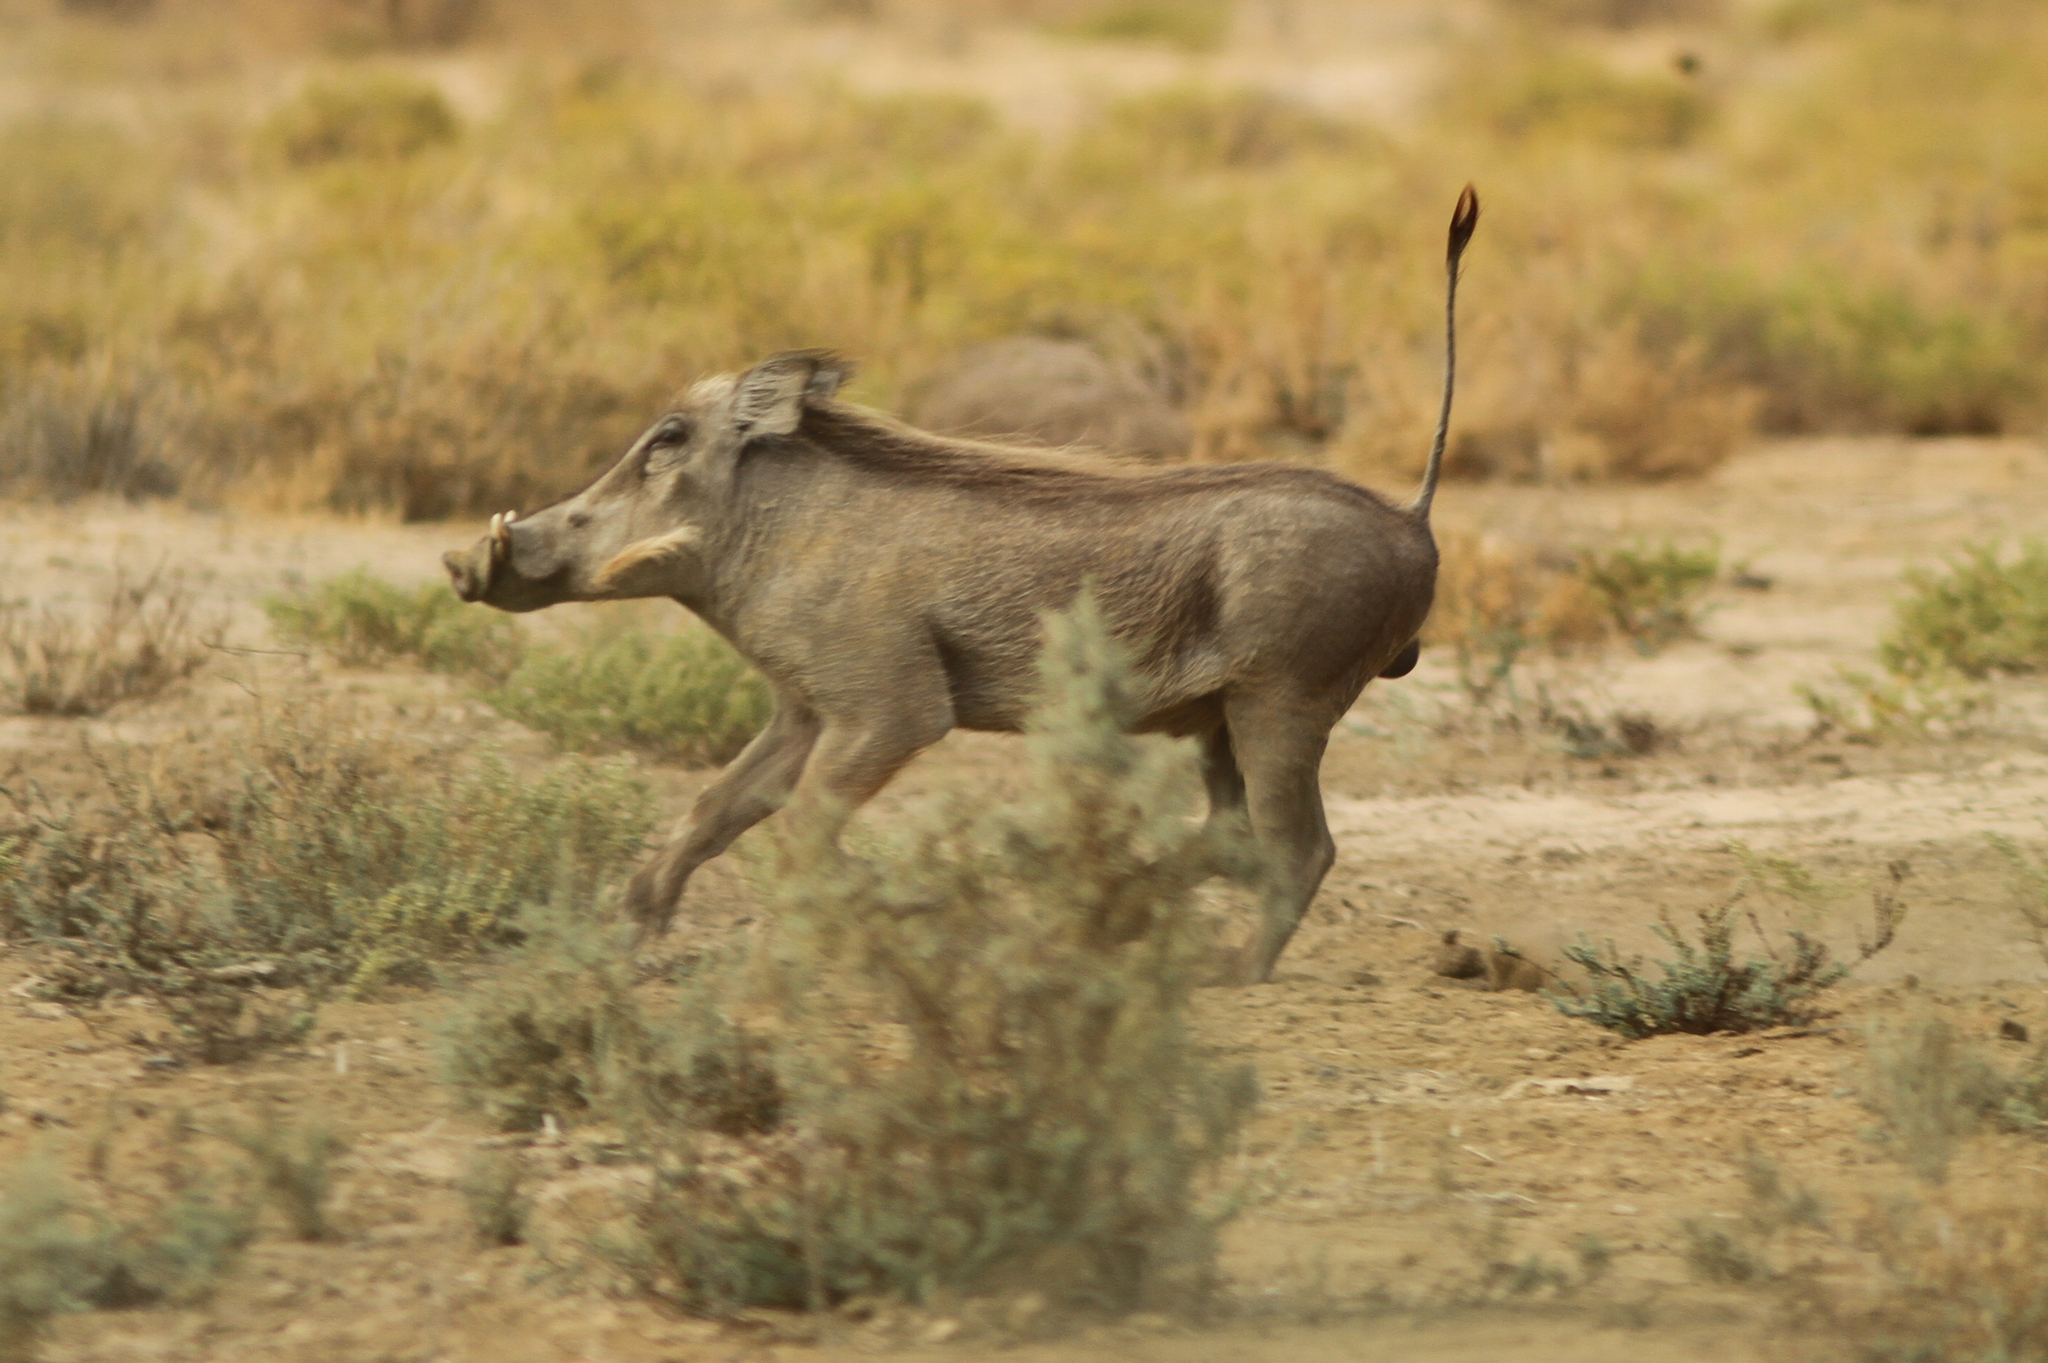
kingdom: Animalia
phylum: Chordata
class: Mammalia
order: Artiodactyla
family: Suidae
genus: Phacochoerus
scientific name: Phacochoerus africanus
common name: Common warthog
